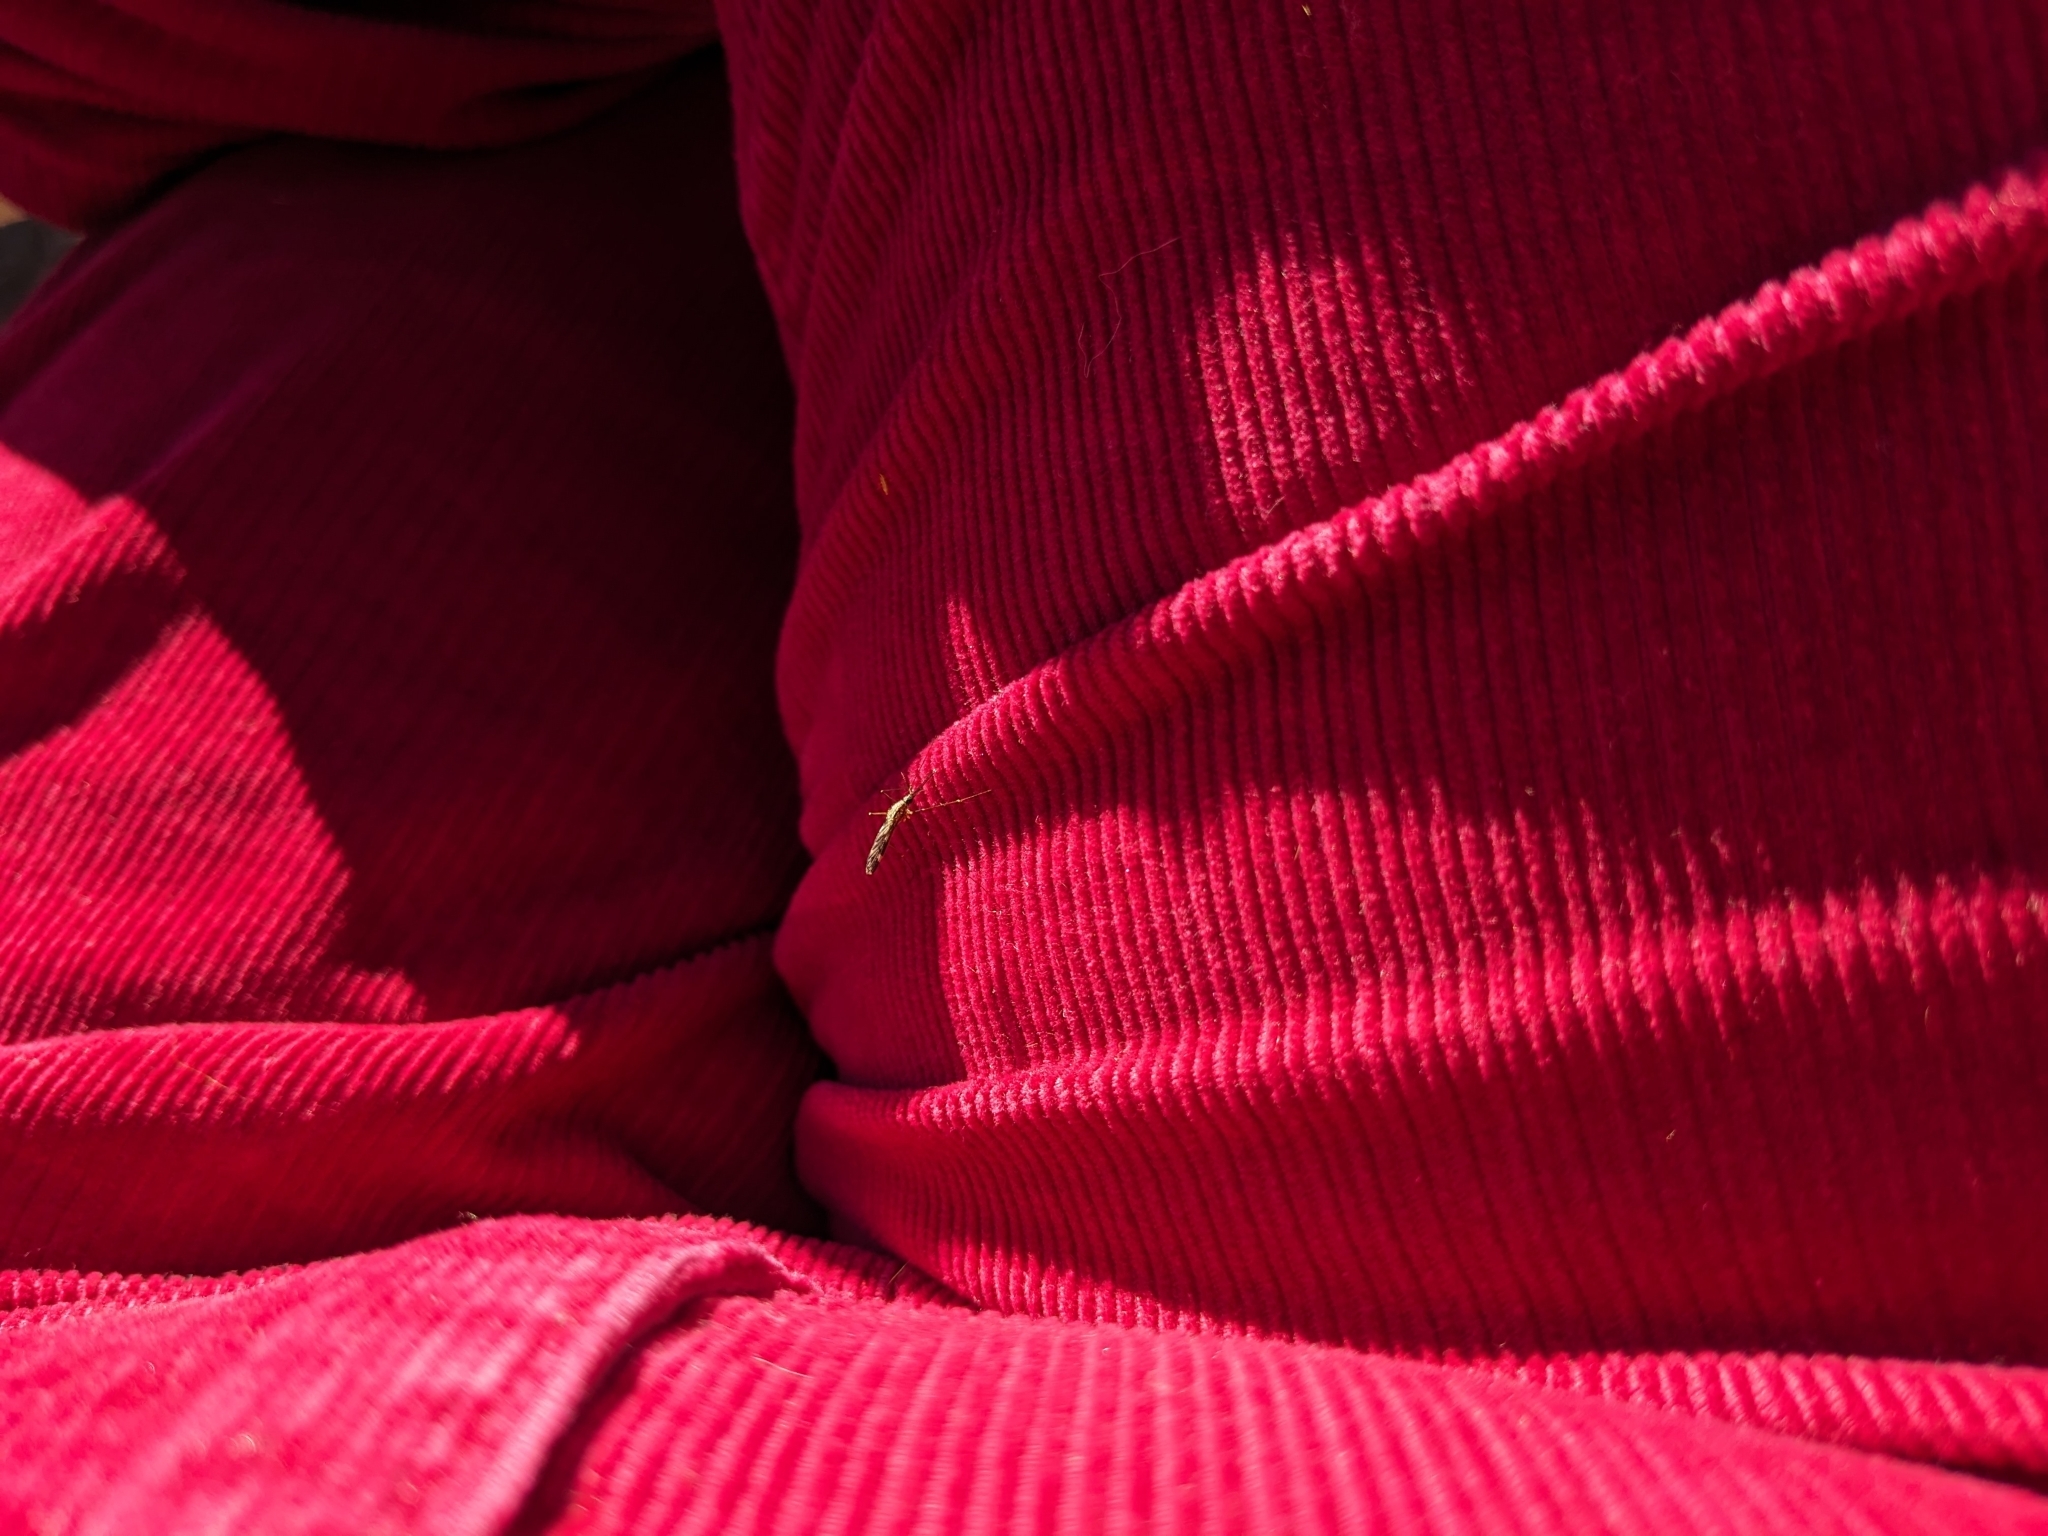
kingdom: Animalia
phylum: Arthropoda
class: Insecta
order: Diptera
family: Culicidae
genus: Anopheles
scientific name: Anopheles punctipennis
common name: Woodland malaria mosquito
